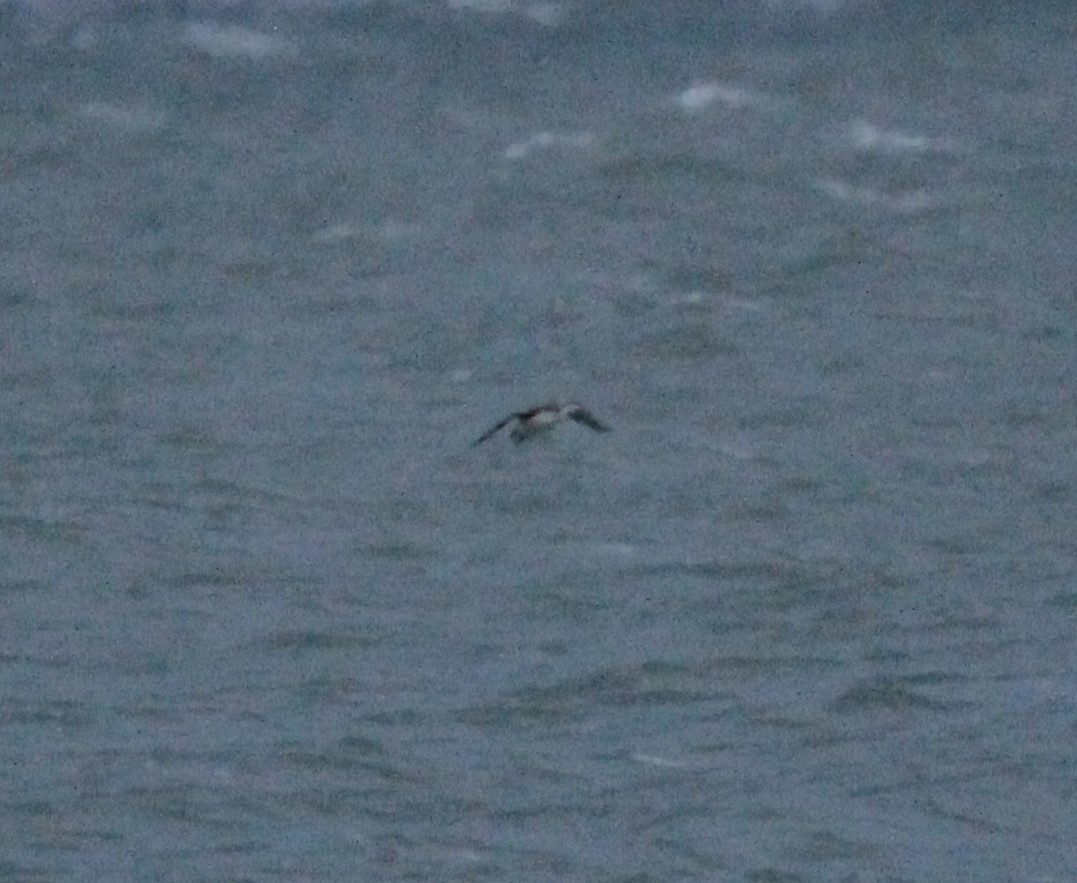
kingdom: Animalia
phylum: Chordata
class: Aves
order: Gaviiformes
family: Gaviidae
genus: Gavia
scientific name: Gavia stellata
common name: Red-throated loon
